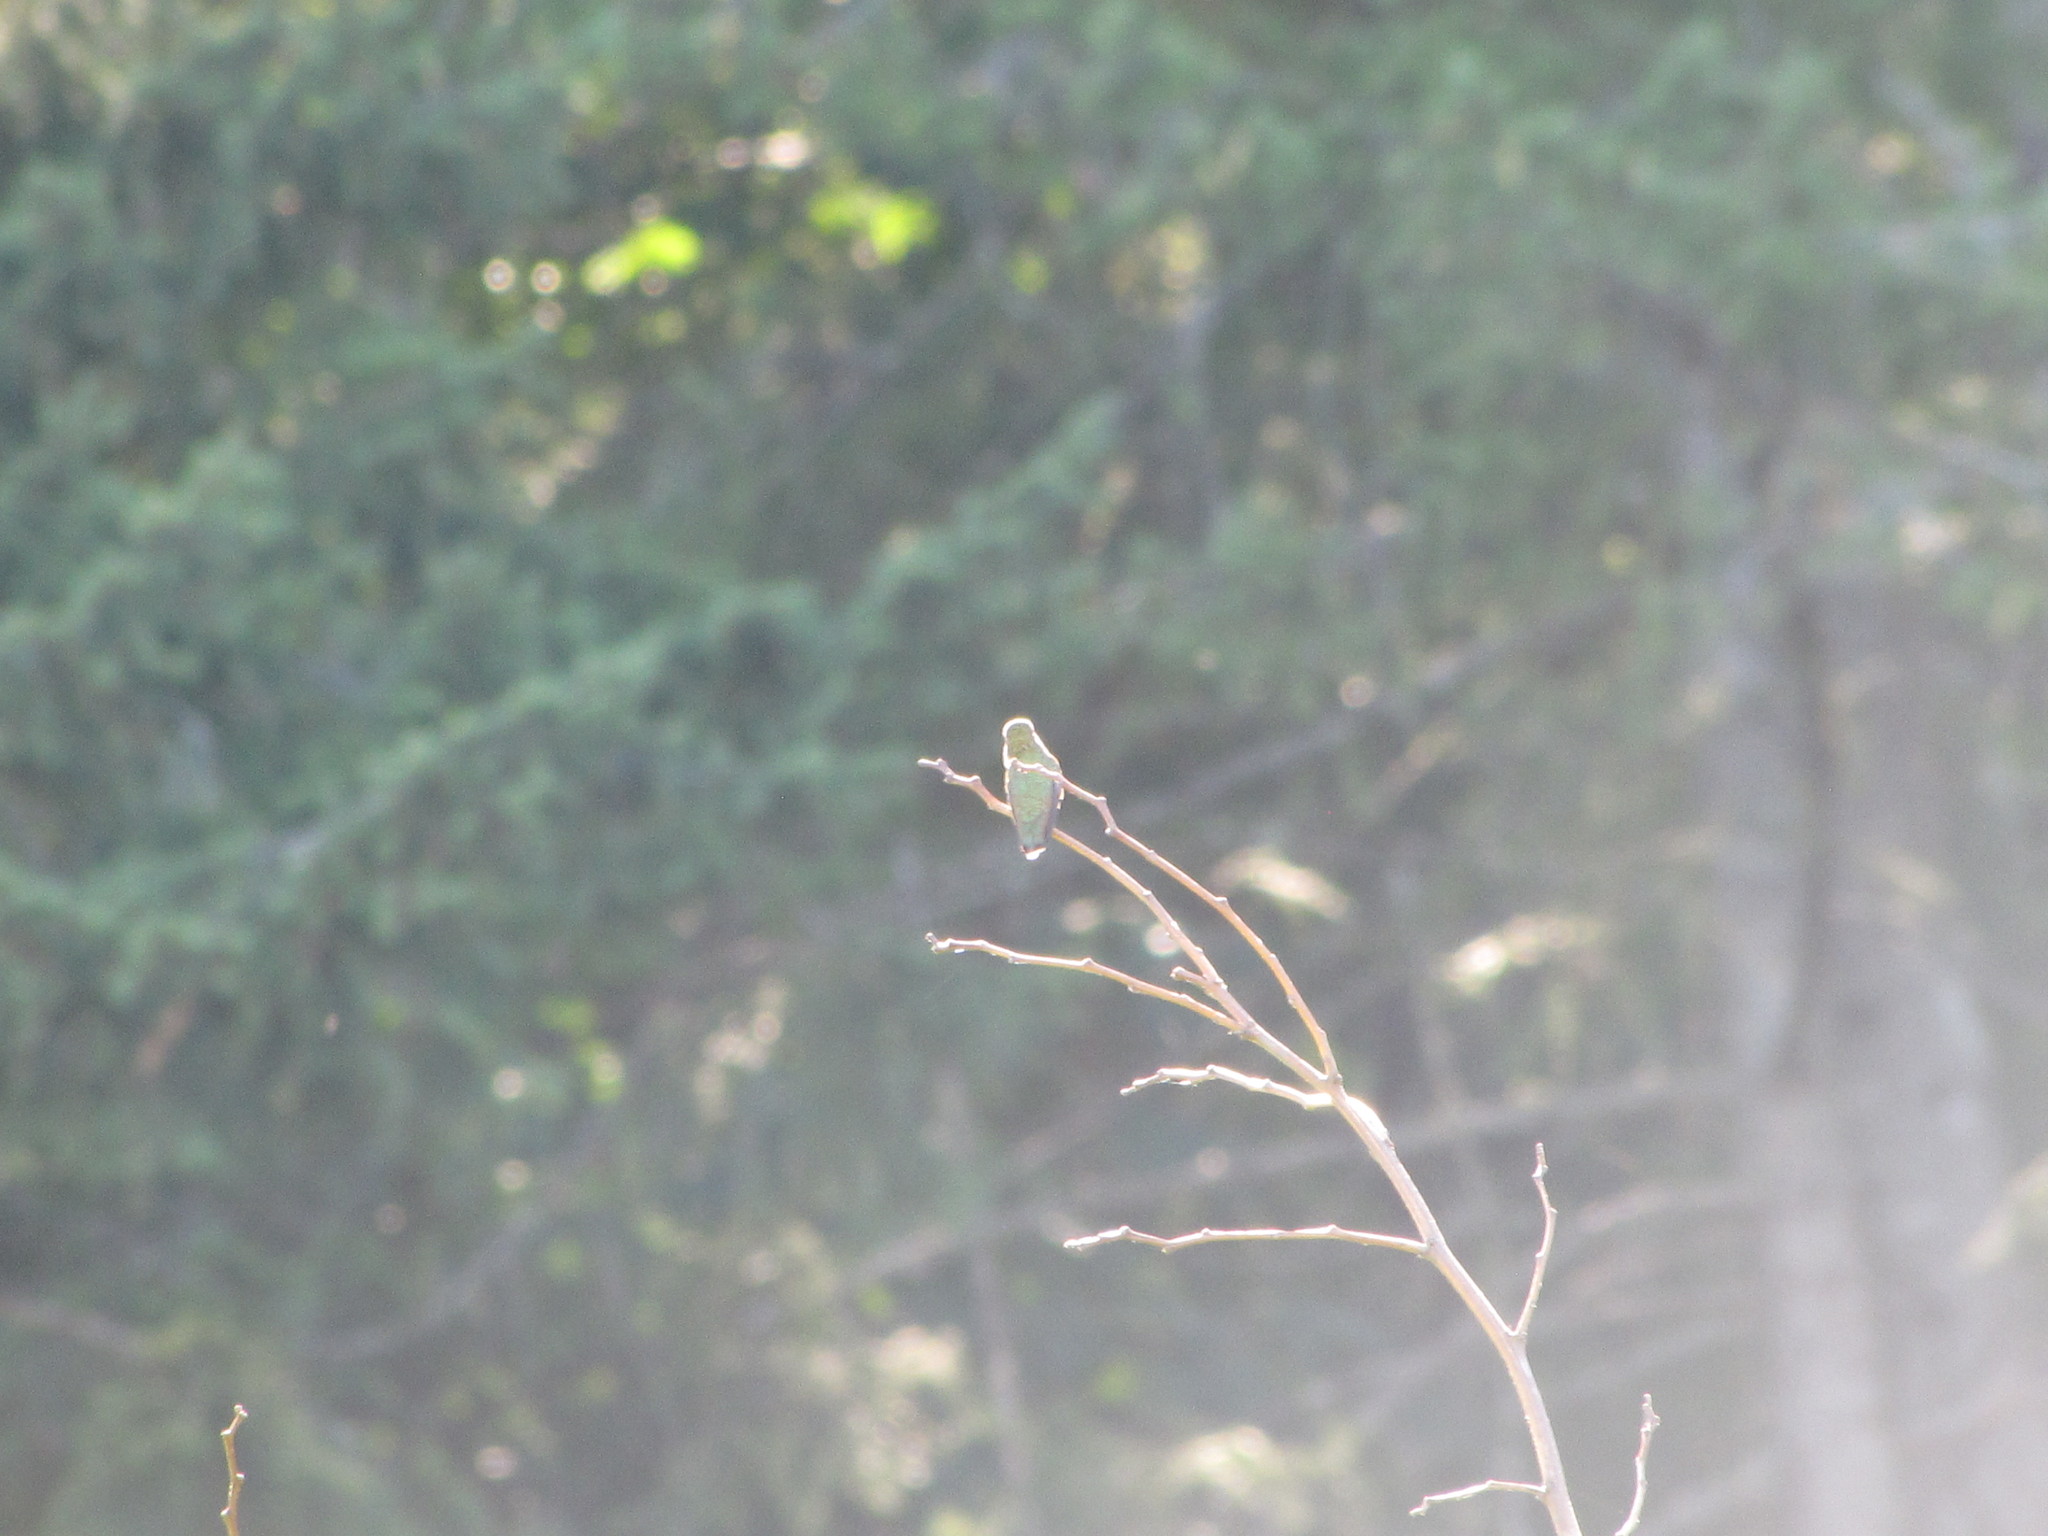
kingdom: Animalia
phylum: Chordata
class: Aves
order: Apodiformes
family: Trochilidae
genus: Calypte
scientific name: Calypte anna
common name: Anna's hummingbird
